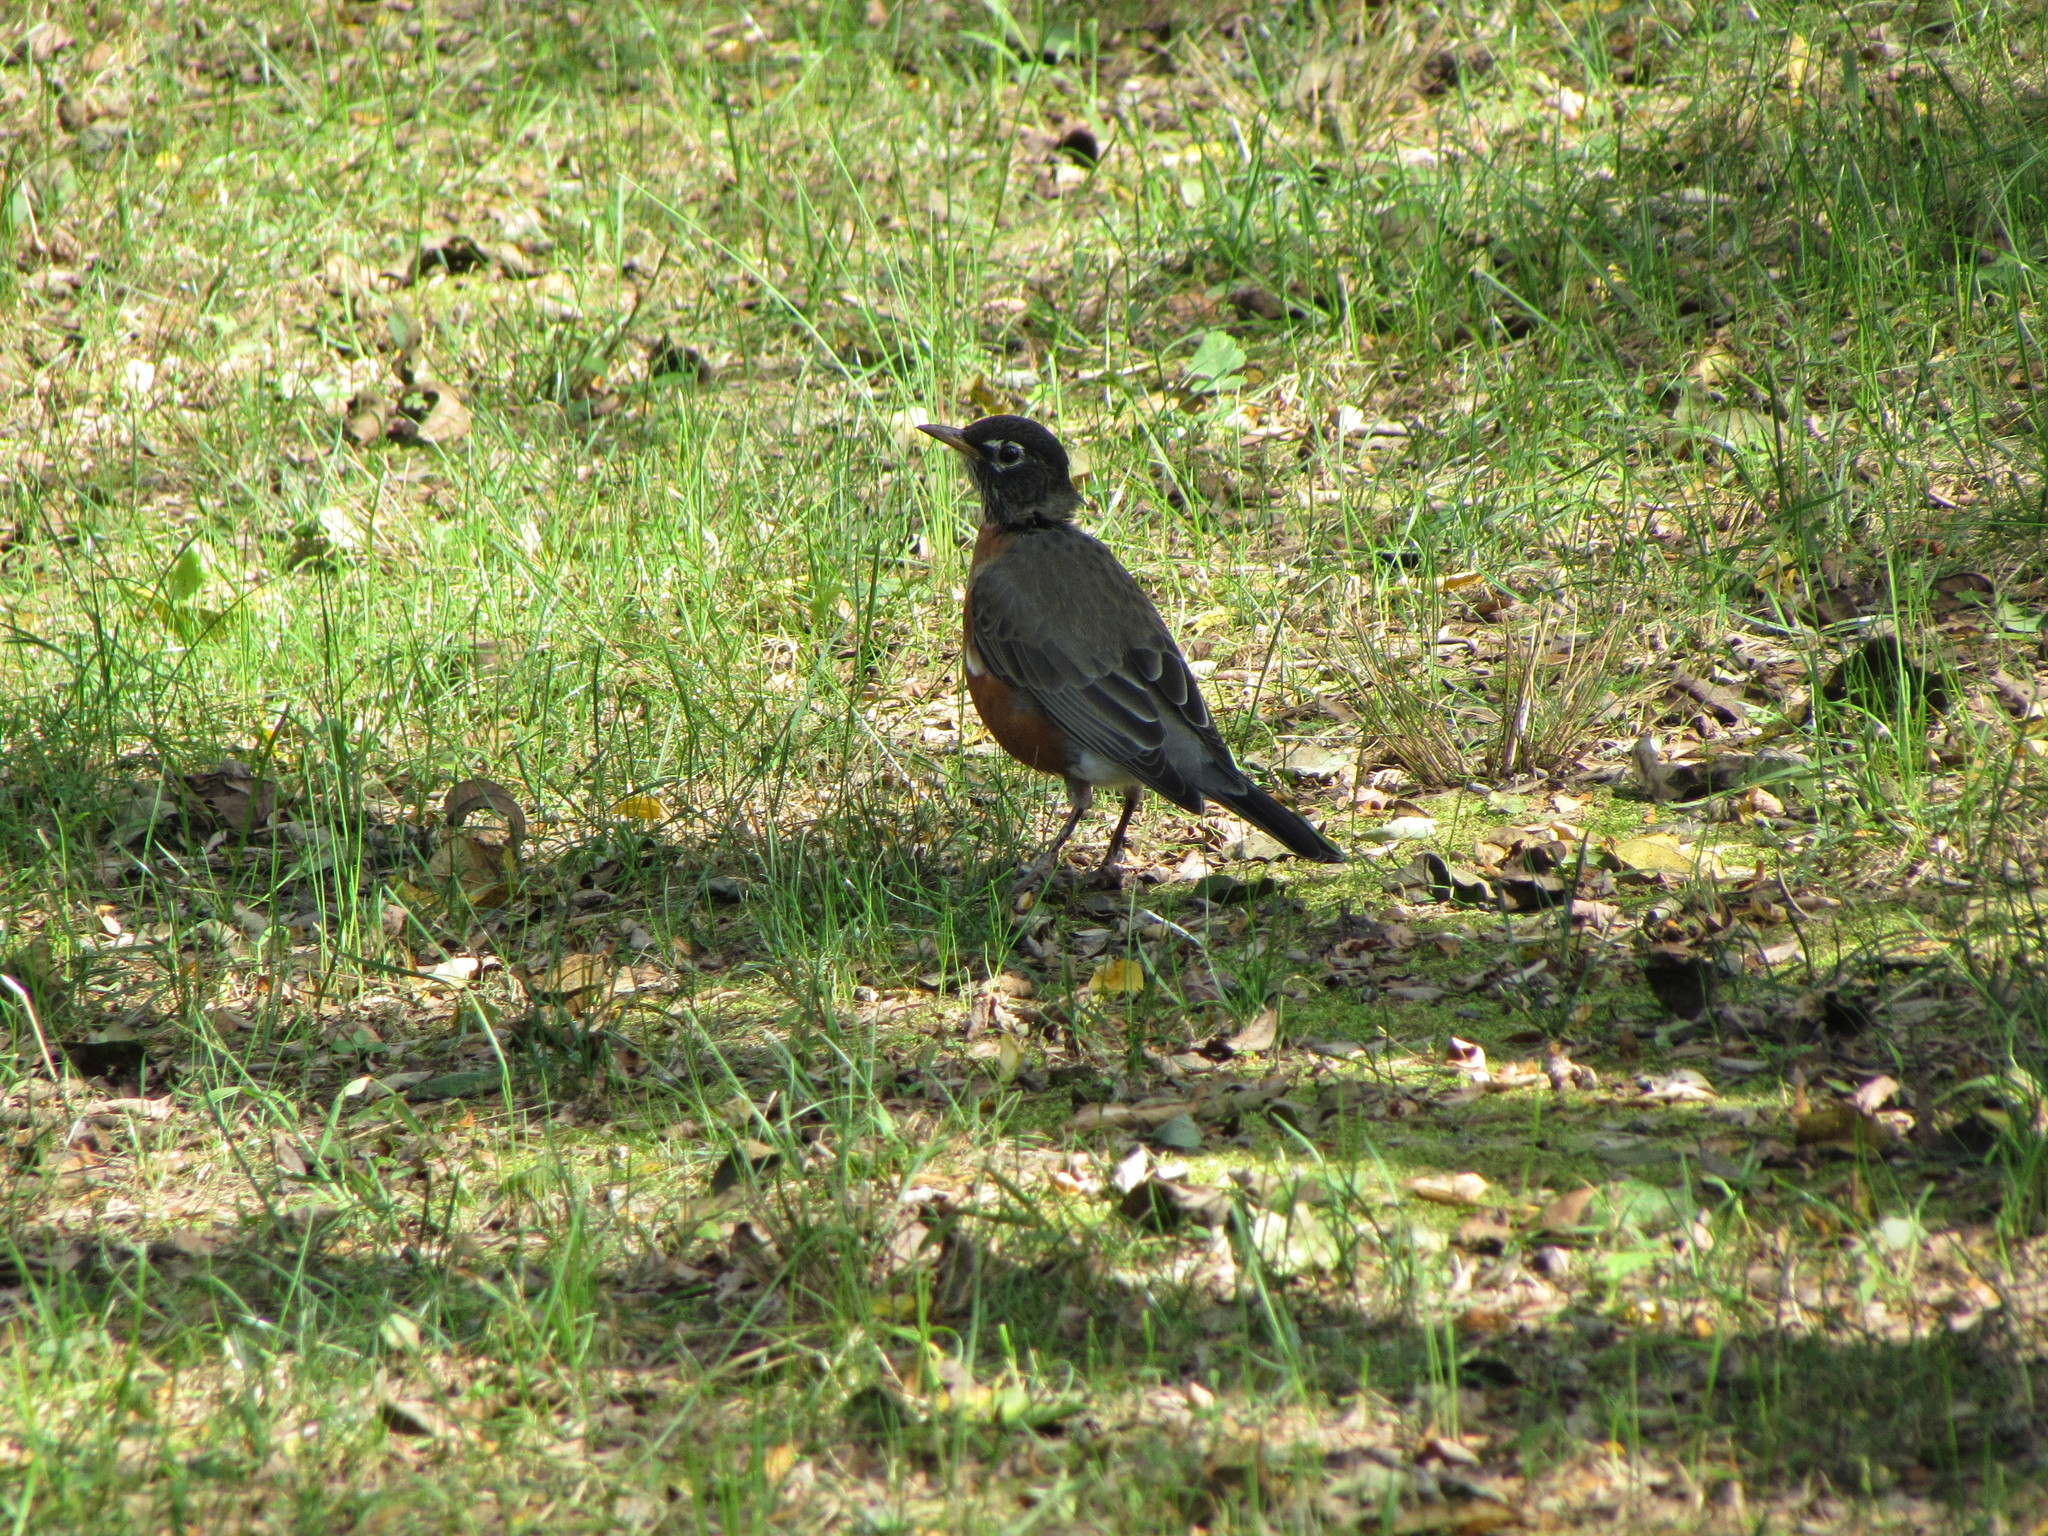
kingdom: Animalia
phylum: Chordata
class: Aves
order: Passeriformes
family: Turdidae
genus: Turdus
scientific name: Turdus migratorius
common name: American robin
